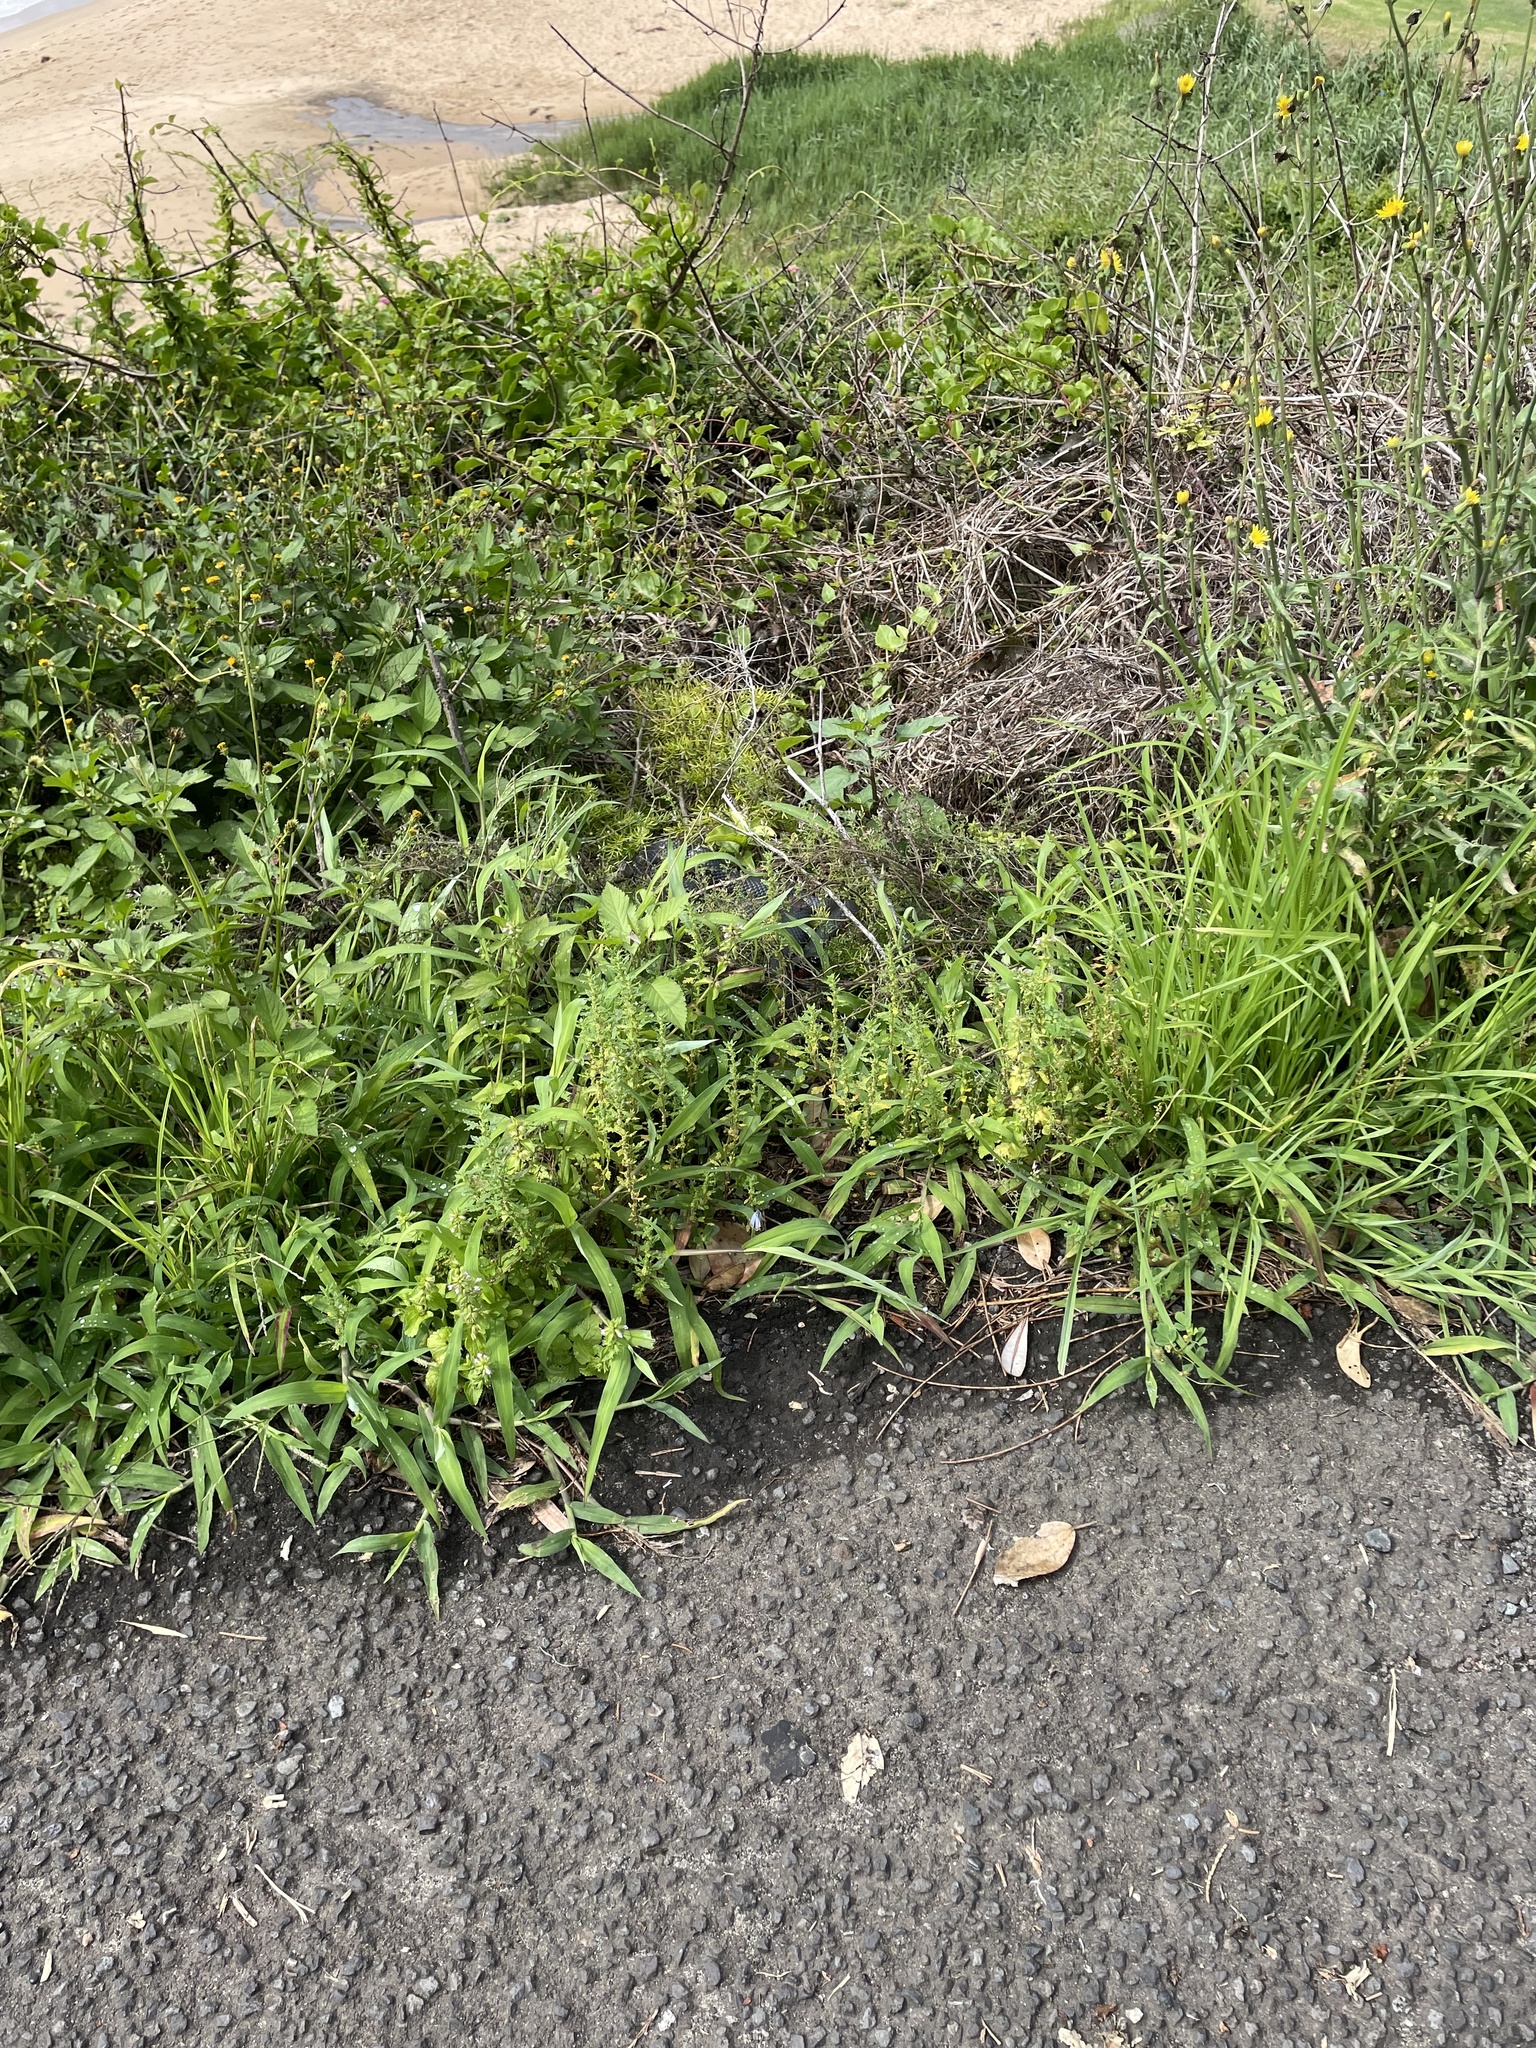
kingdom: Animalia
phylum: Chordata
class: Squamata
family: Elapidae
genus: Pseudechis
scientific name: Pseudechis porphyriacus
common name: Australian black snake
